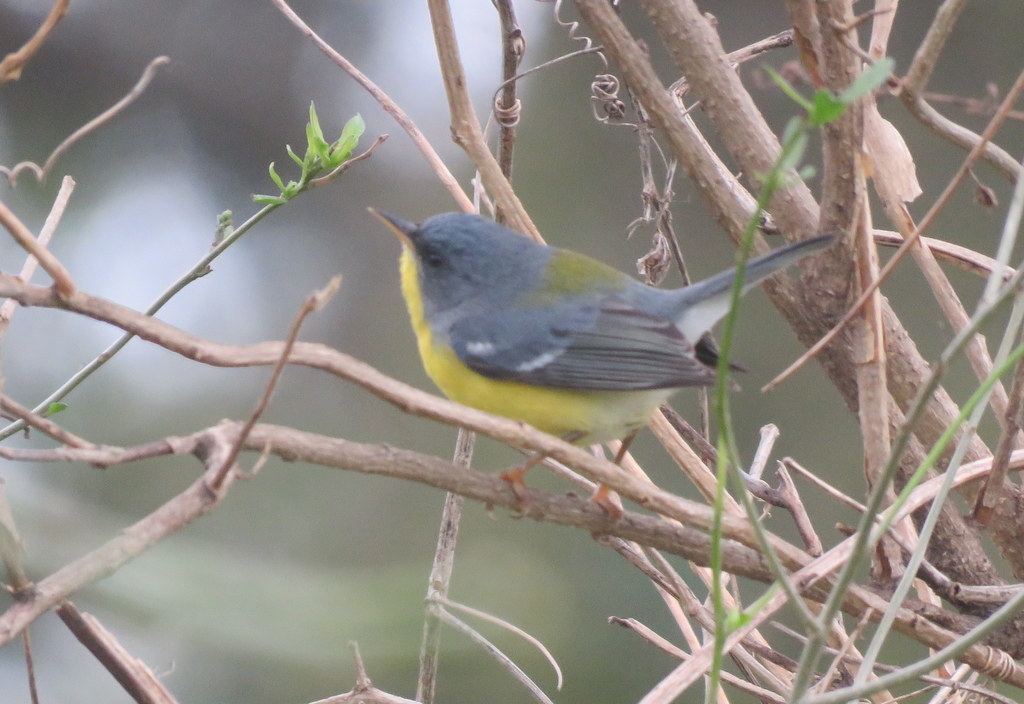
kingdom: Animalia
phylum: Chordata
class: Aves
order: Passeriformes
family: Parulidae
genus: Setophaga
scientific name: Setophaga pitiayumi
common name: Tropical parula
